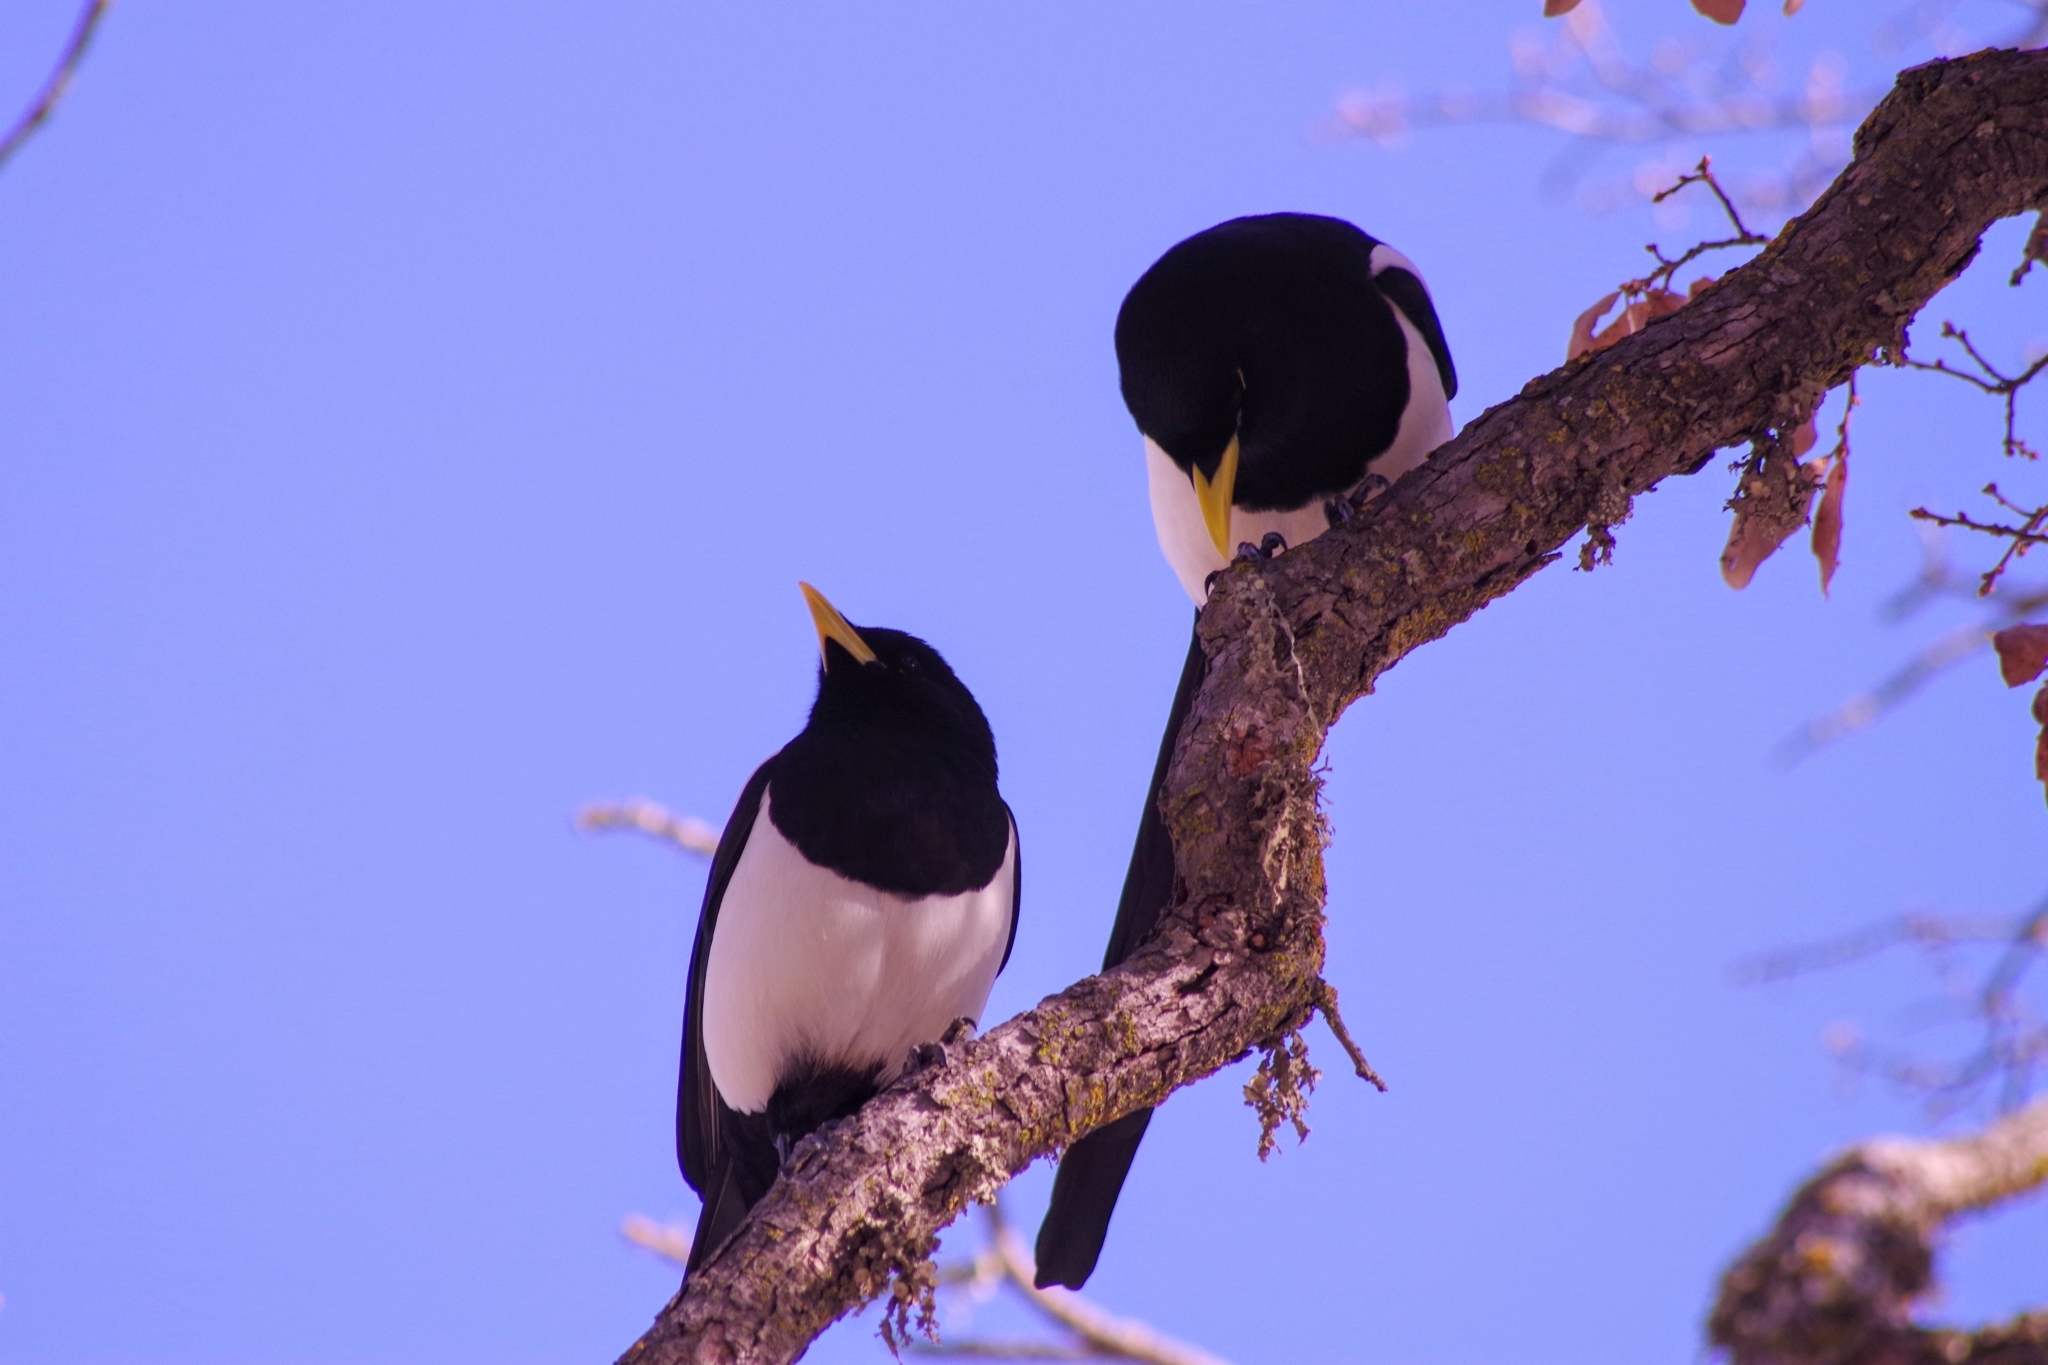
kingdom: Animalia
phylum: Chordata
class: Aves
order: Passeriformes
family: Corvidae
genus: Pica
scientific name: Pica nuttalli
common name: Yellow-billed magpie
